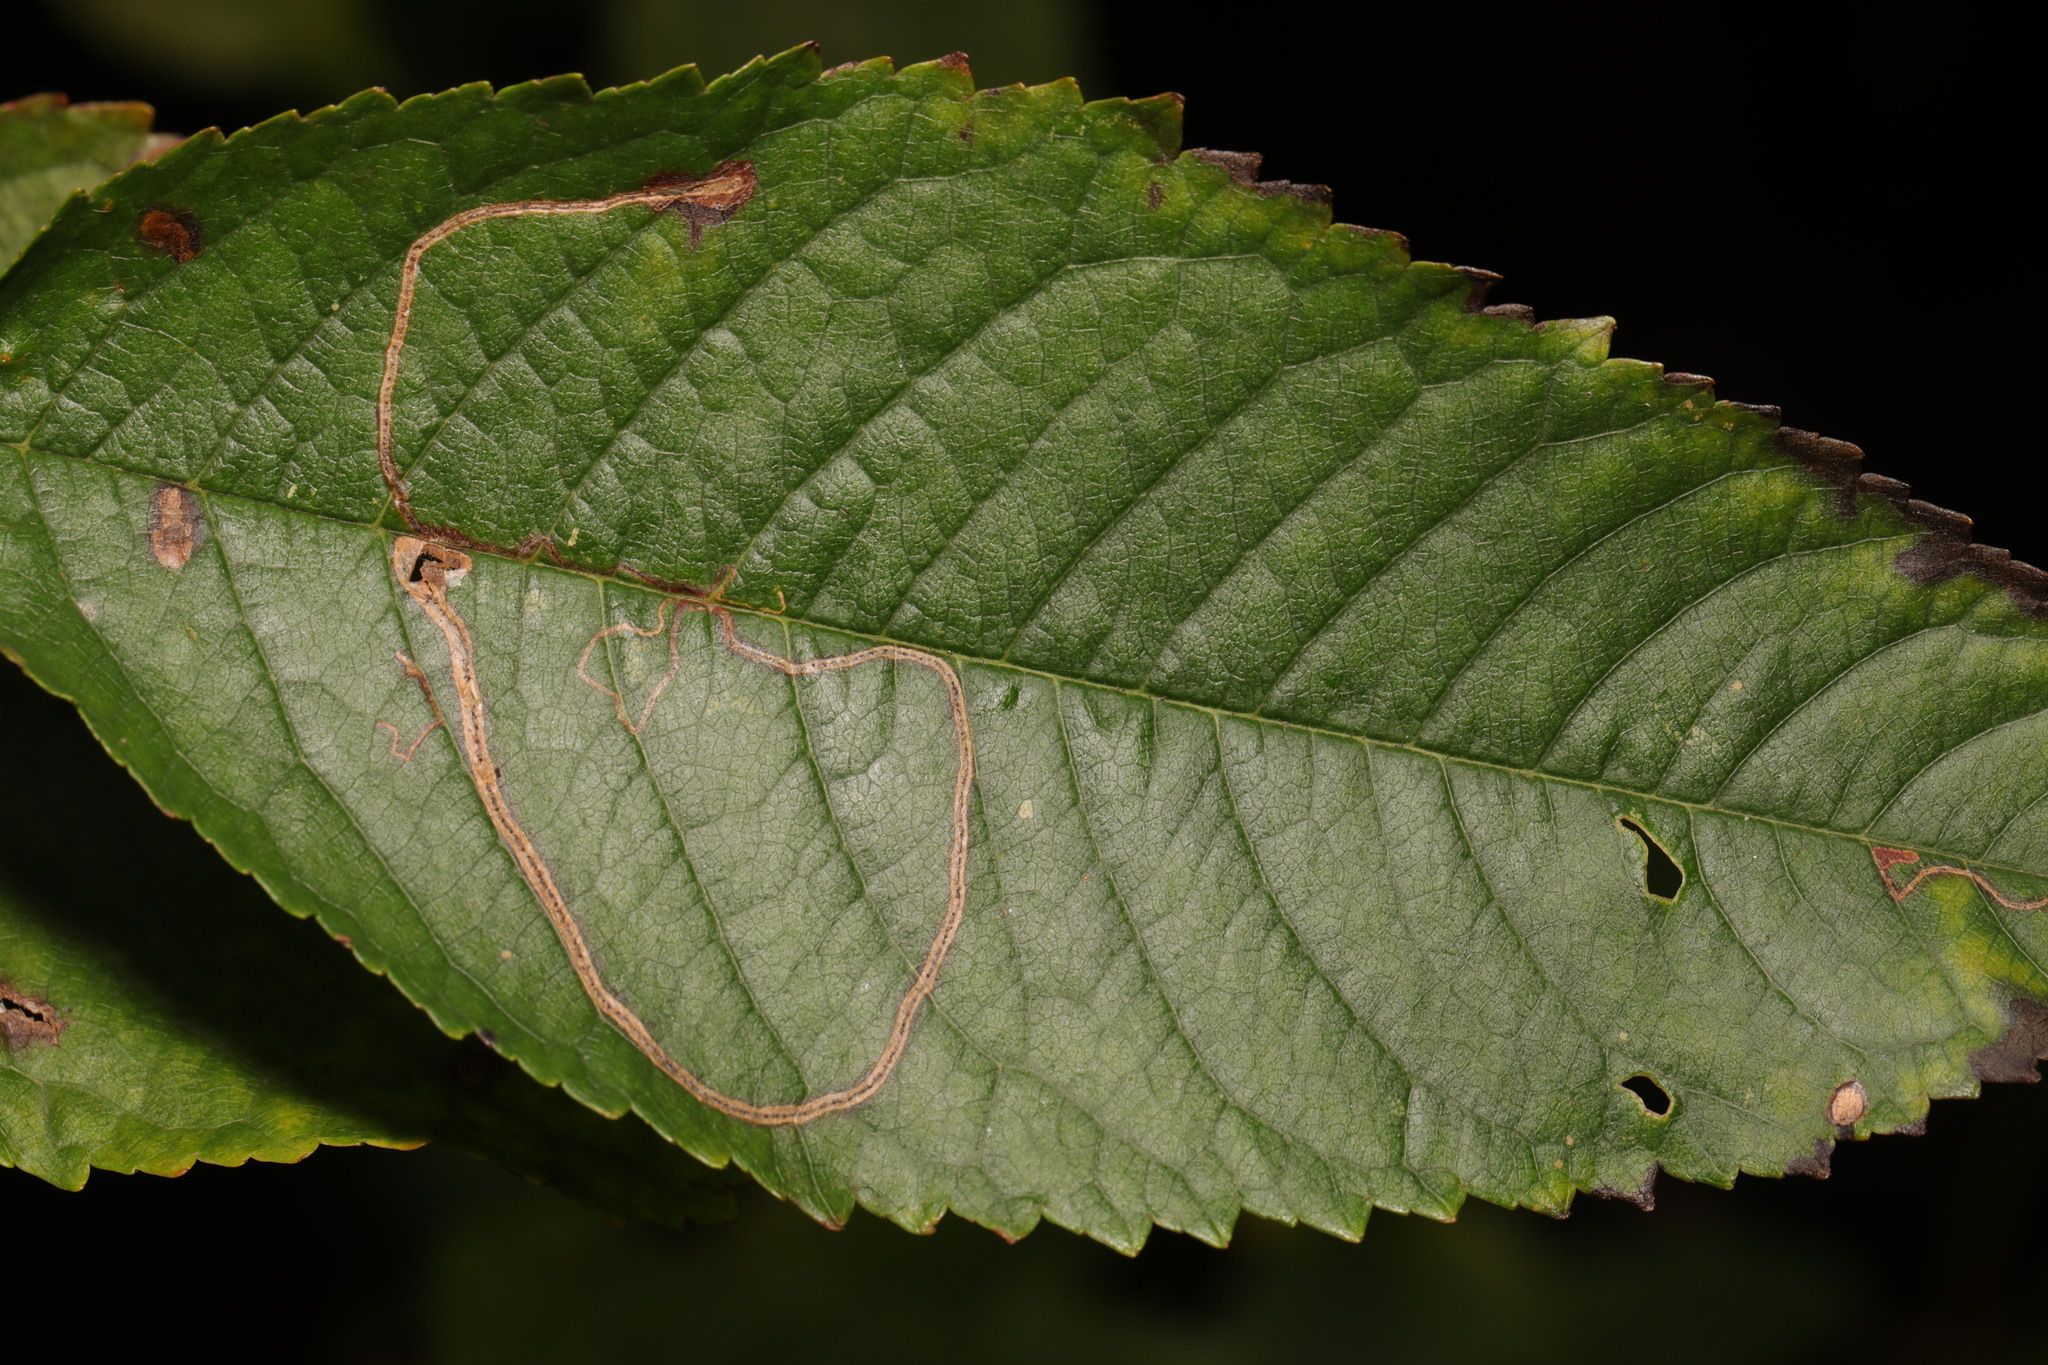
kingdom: Animalia
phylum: Arthropoda
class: Insecta
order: Lepidoptera
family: Lyonetiidae
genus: Lyonetia
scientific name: Lyonetia clerkella
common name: Apple leaf miner
